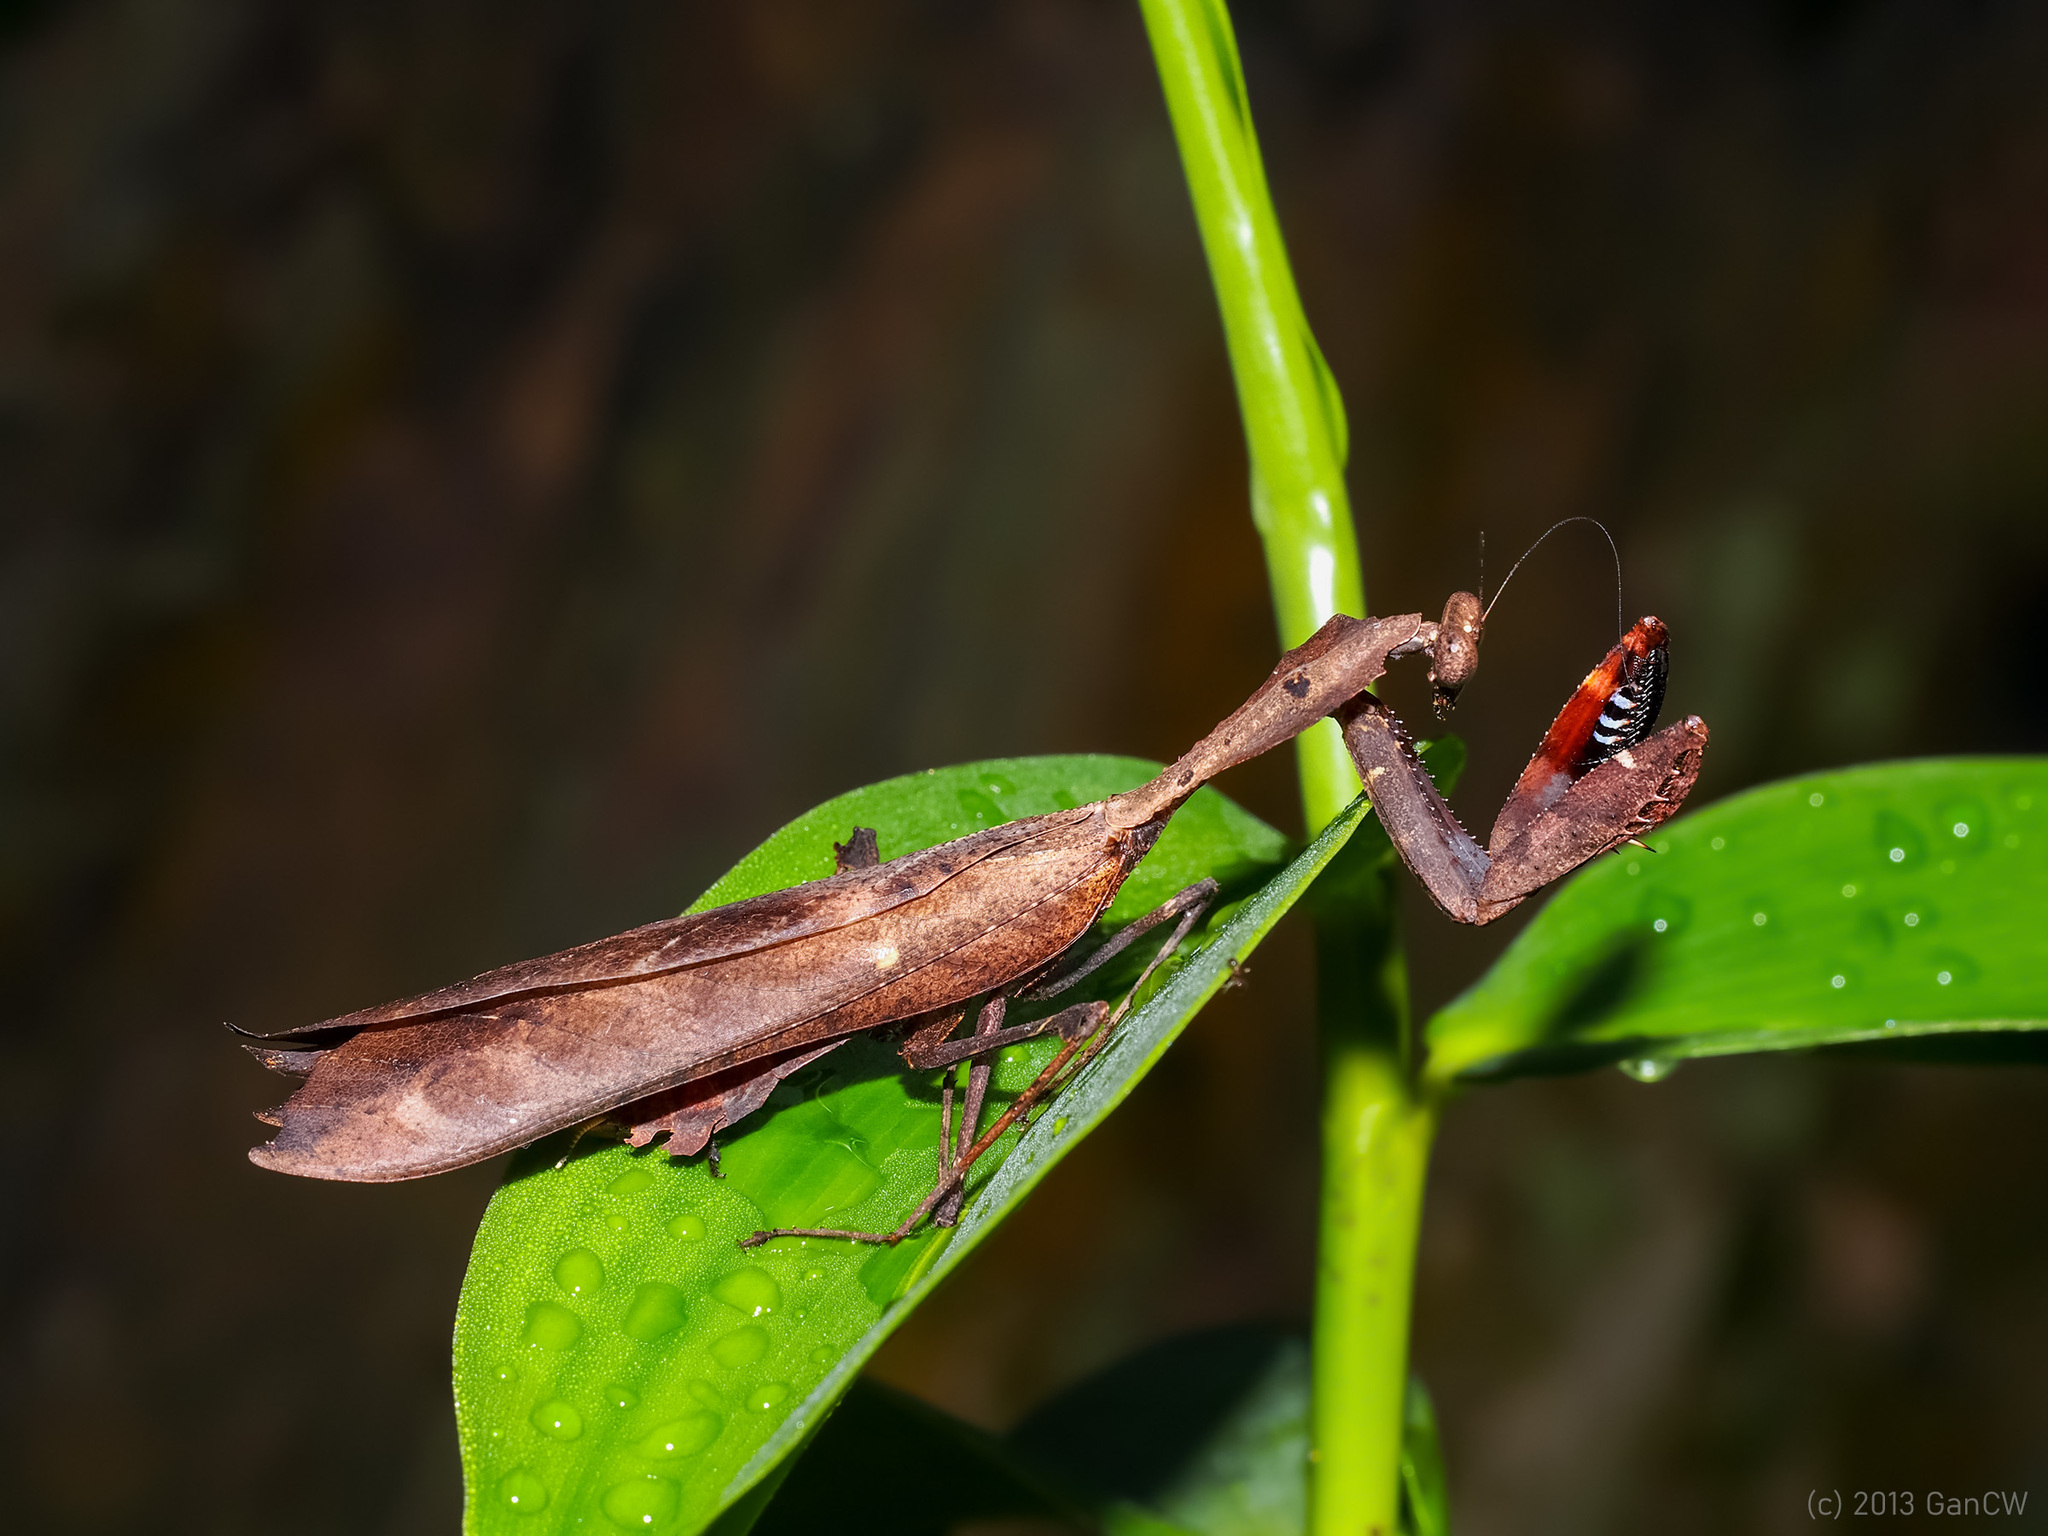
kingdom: Animalia
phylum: Arthropoda
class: Insecta
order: Mantodea
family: Deroplatyidae
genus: Deroplatys
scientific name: Deroplatys desiccata
